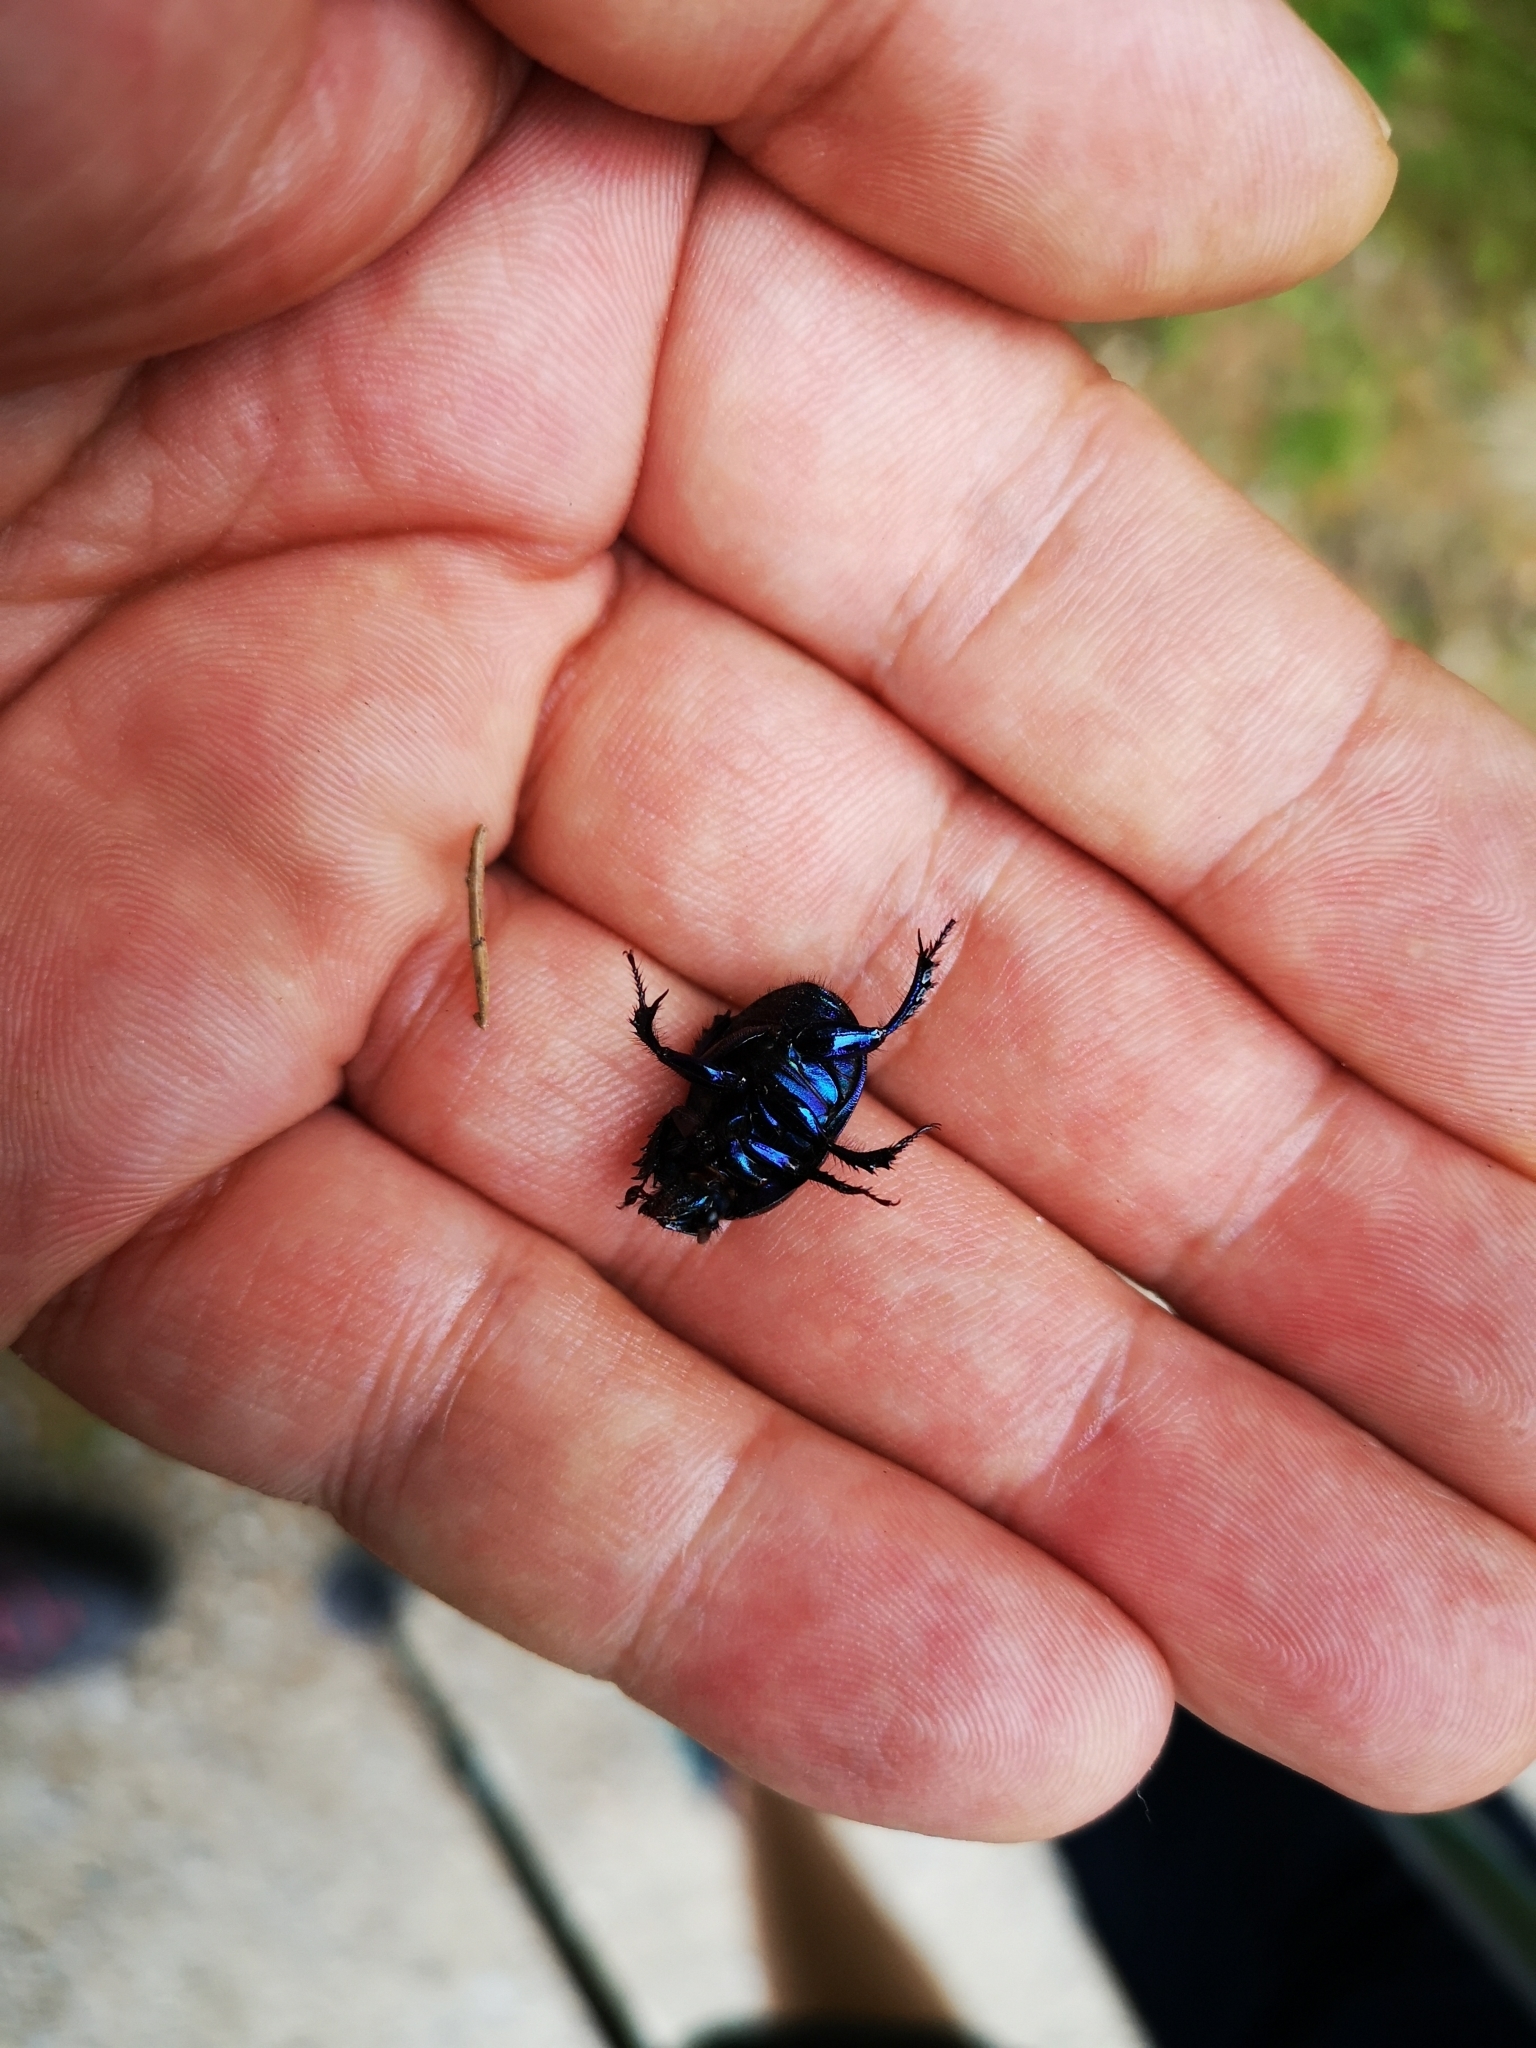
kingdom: Animalia
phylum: Arthropoda
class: Insecta
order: Coleoptera
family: Geotrupidae
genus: Anoplotrupes
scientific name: Anoplotrupes stercorosus
